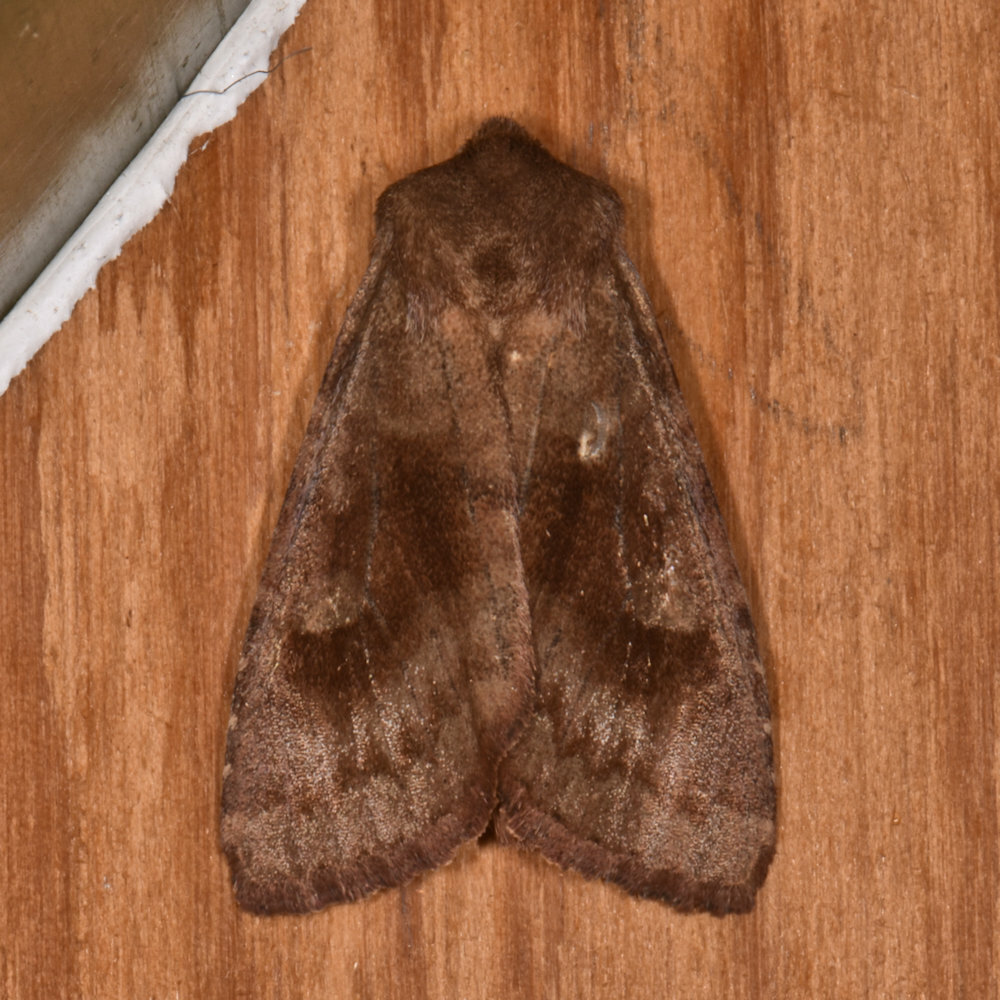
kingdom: Animalia
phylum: Arthropoda
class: Insecta
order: Lepidoptera
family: Noctuidae
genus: Nephelodes
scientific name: Nephelodes minians
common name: Bronzed cutworm
